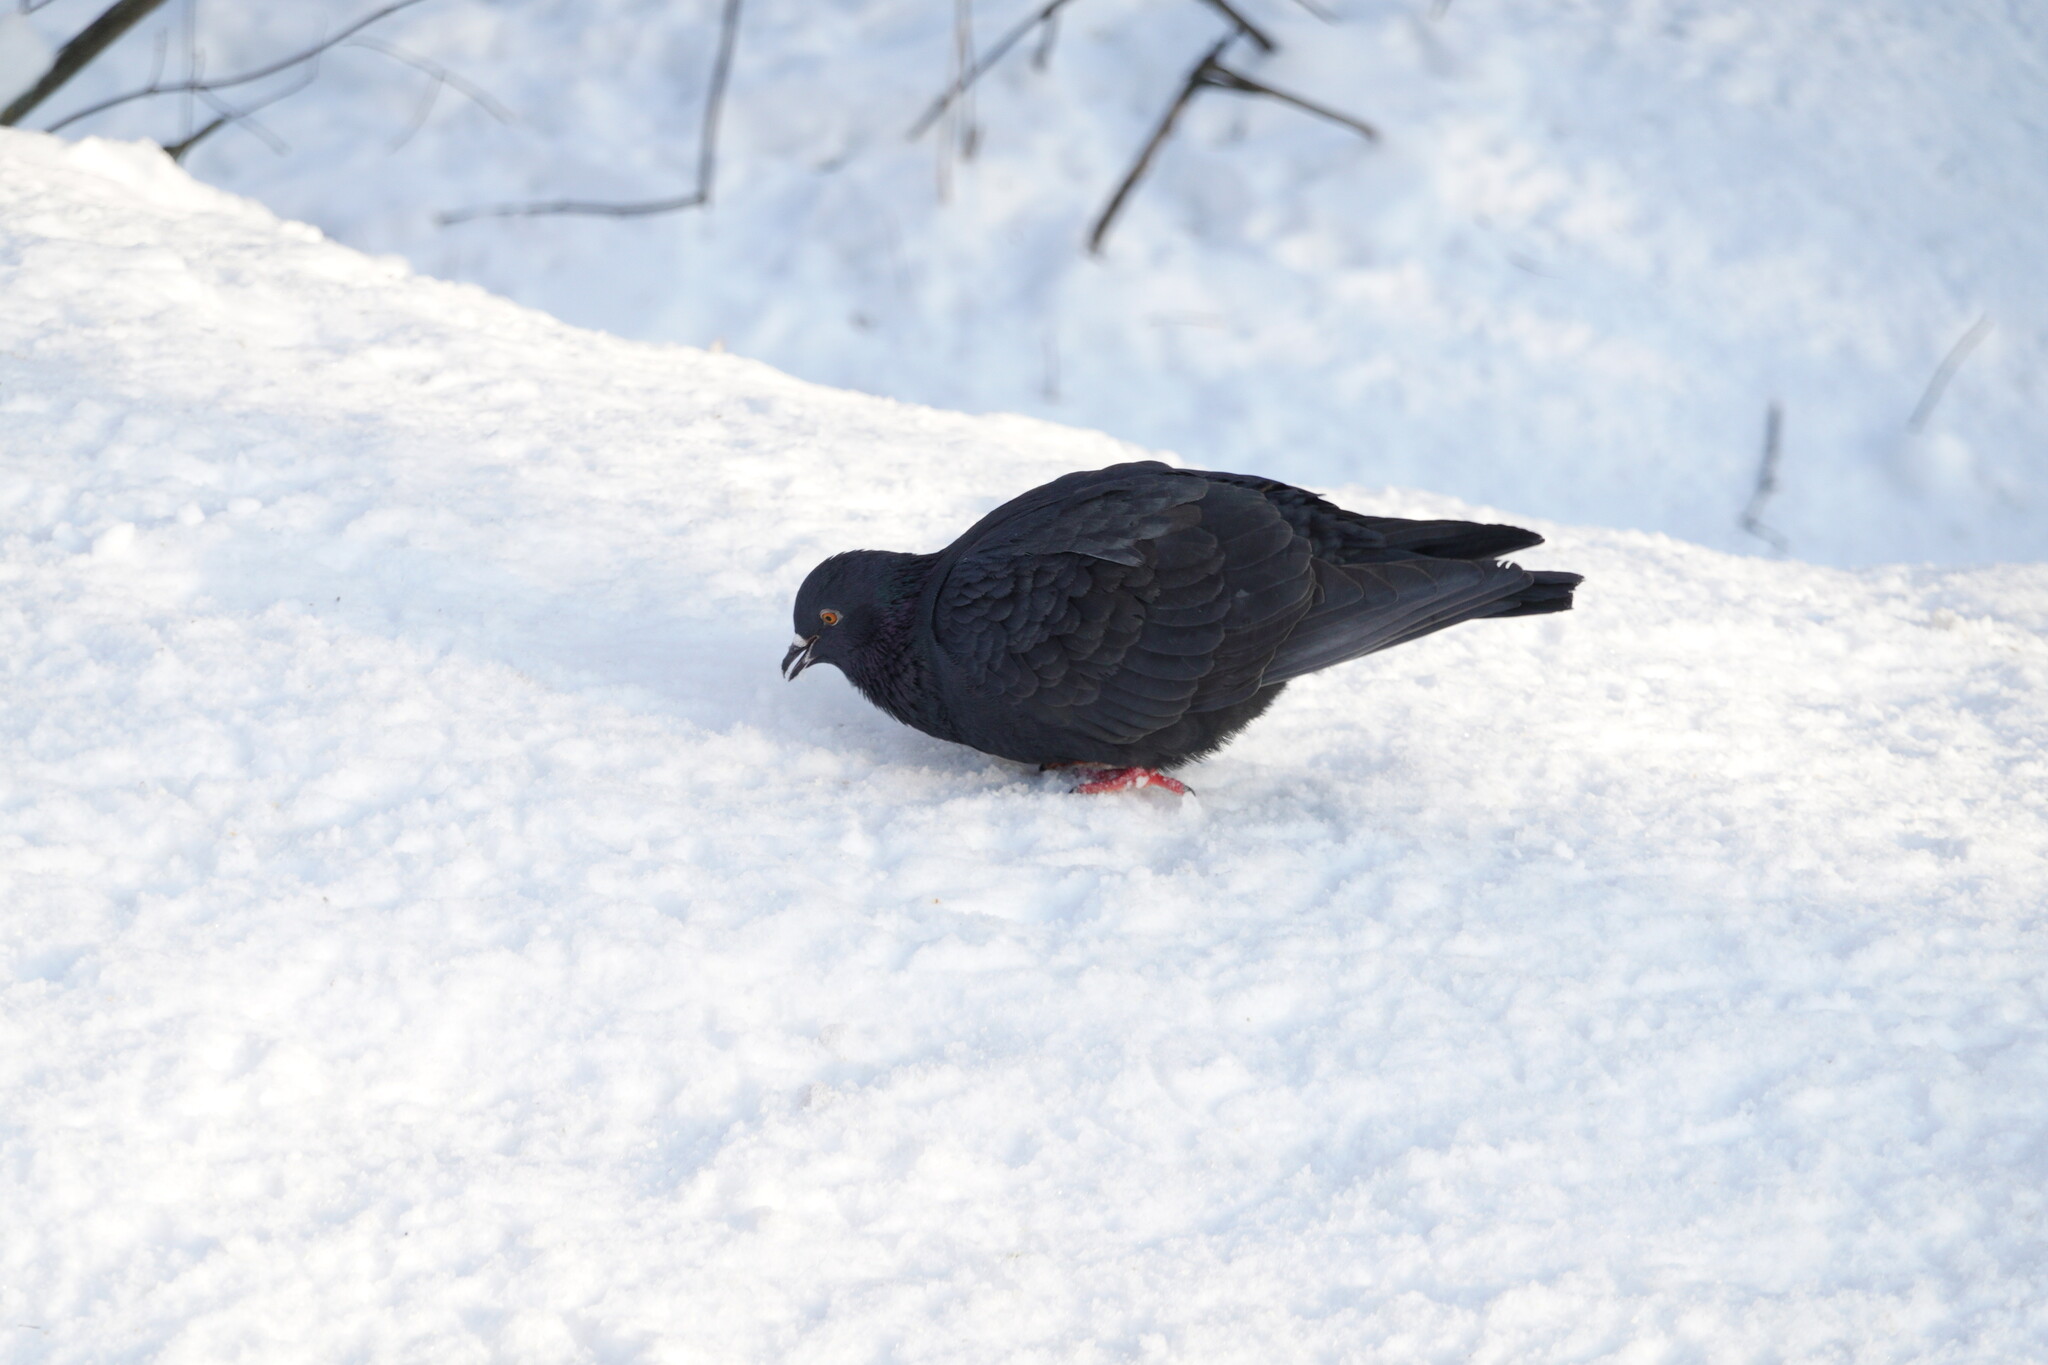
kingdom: Animalia
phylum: Chordata
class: Aves
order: Columbiformes
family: Columbidae
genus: Columba
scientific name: Columba livia
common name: Rock pigeon
